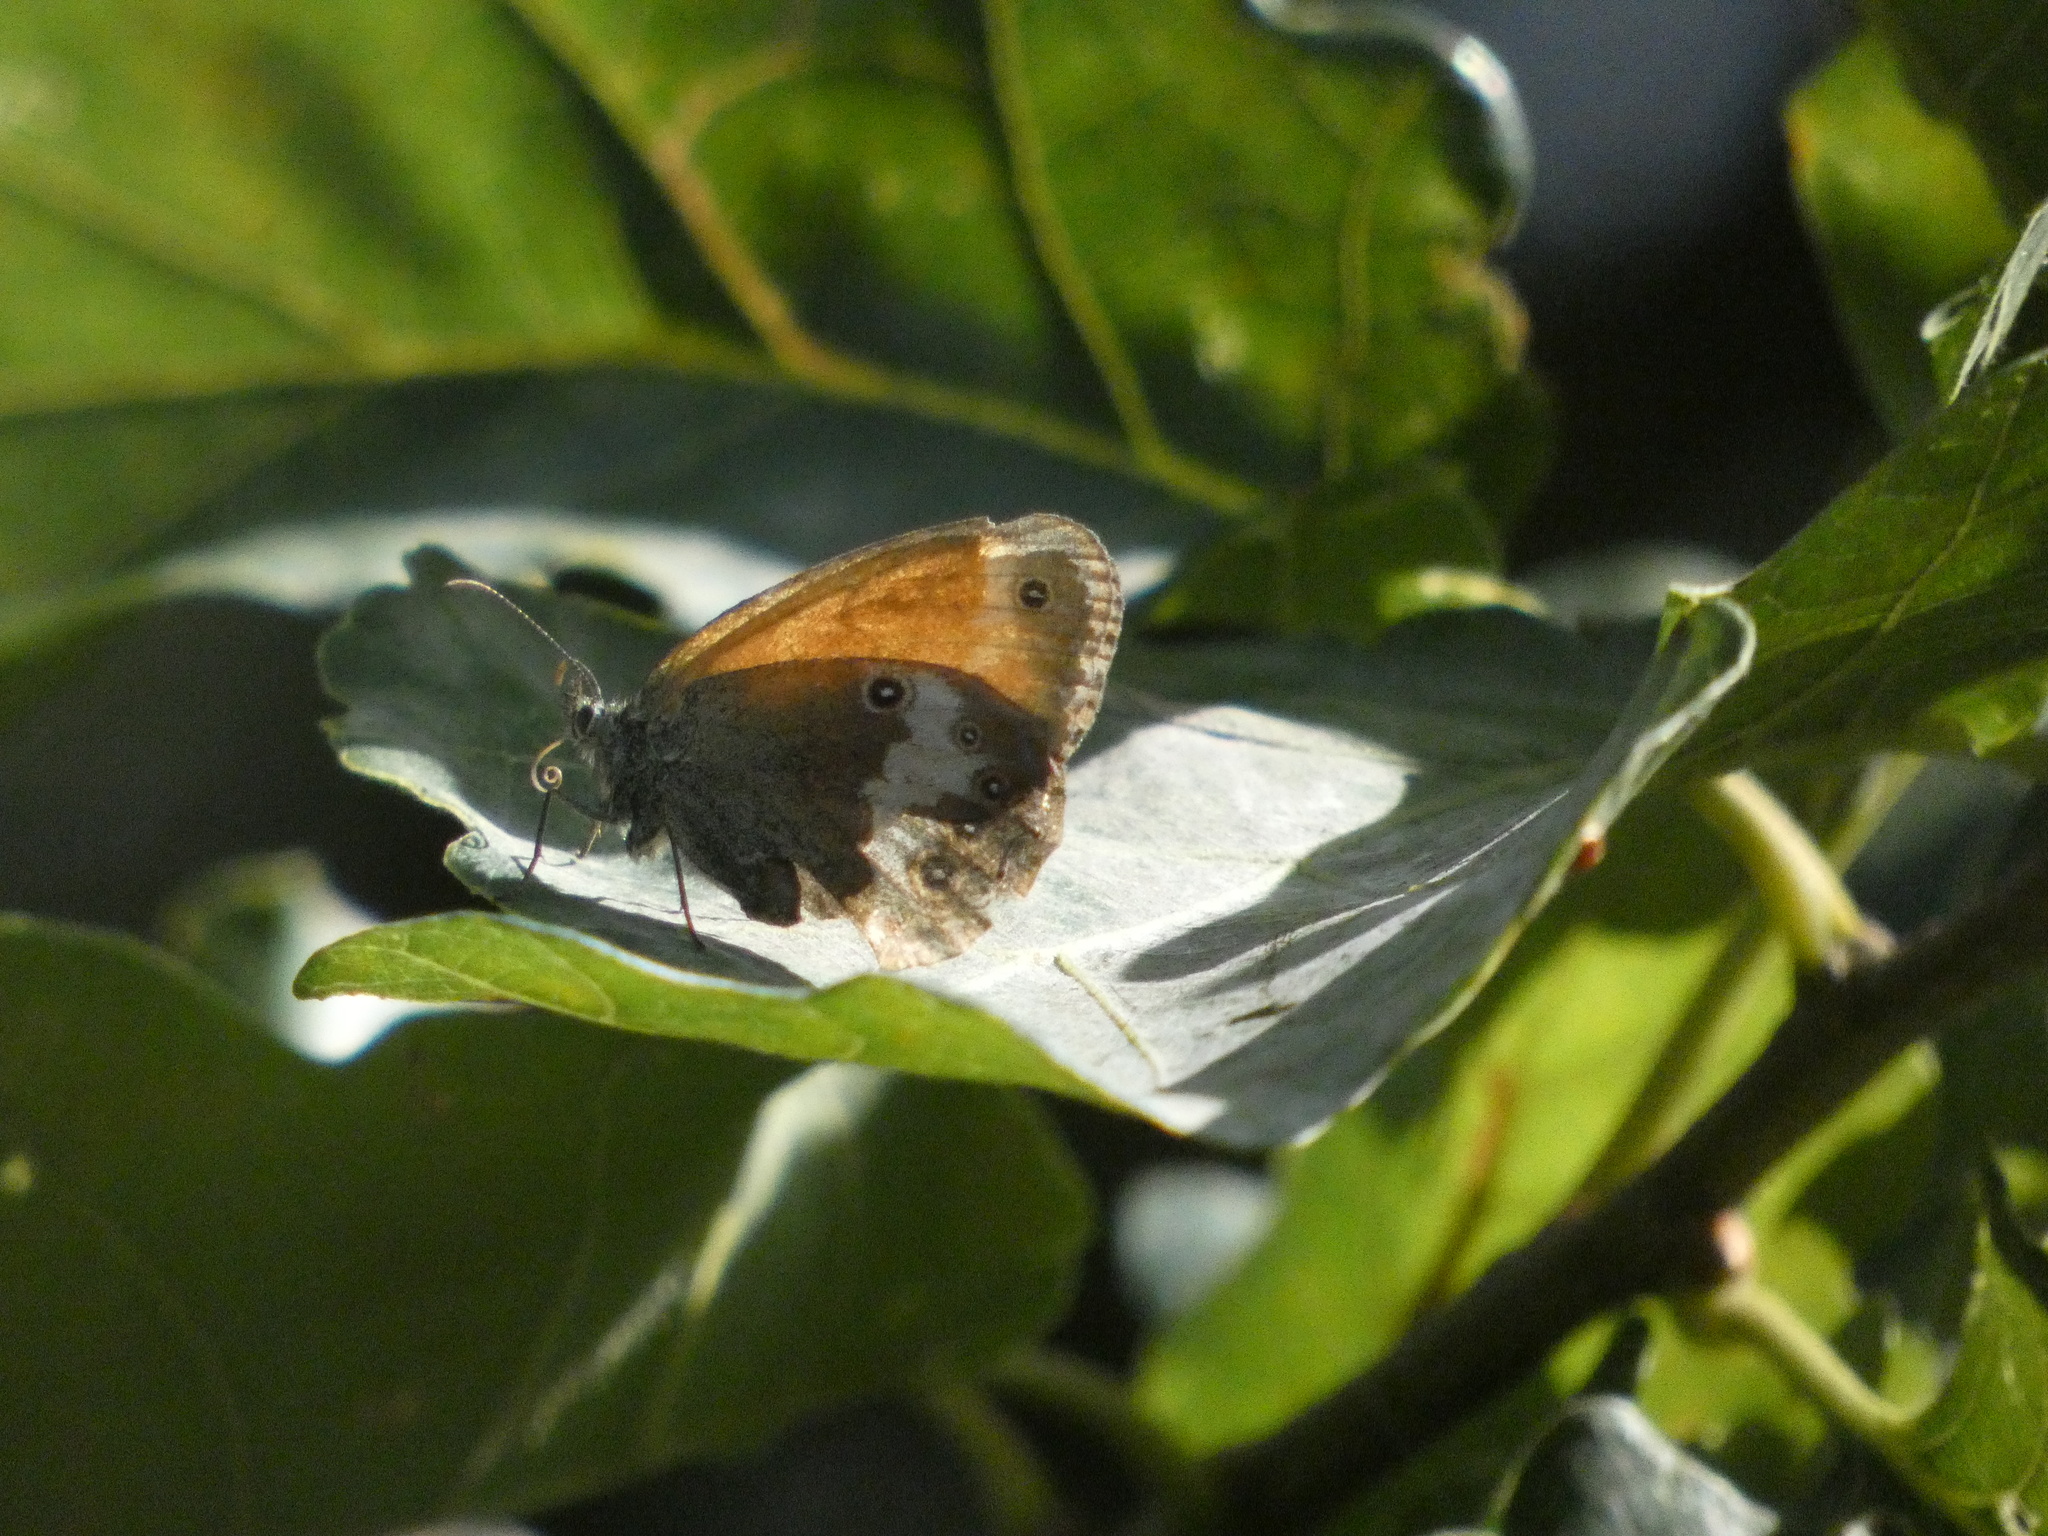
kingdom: Animalia
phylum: Arthropoda
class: Insecta
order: Lepidoptera
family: Nymphalidae
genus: Coenonympha
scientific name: Coenonympha arcania
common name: Pearly heath
